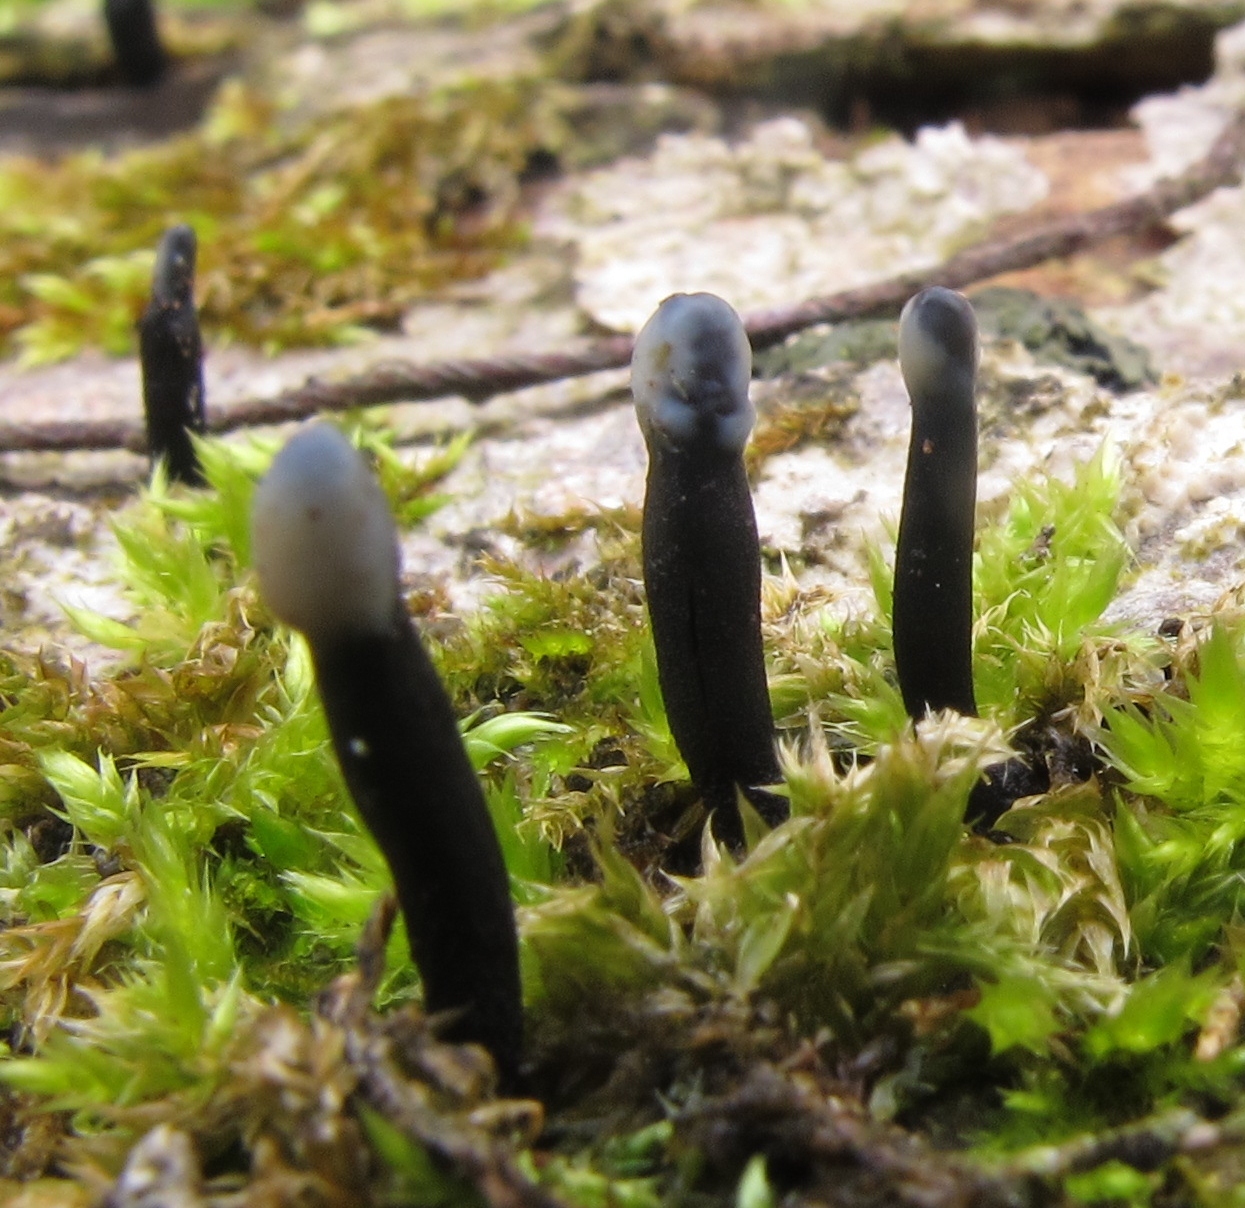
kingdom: Fungi
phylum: Ascomycota
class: Leotiomycetes
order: Helotiales
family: Bulgariaceae
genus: Holwaya
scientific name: Holwaya mucida
